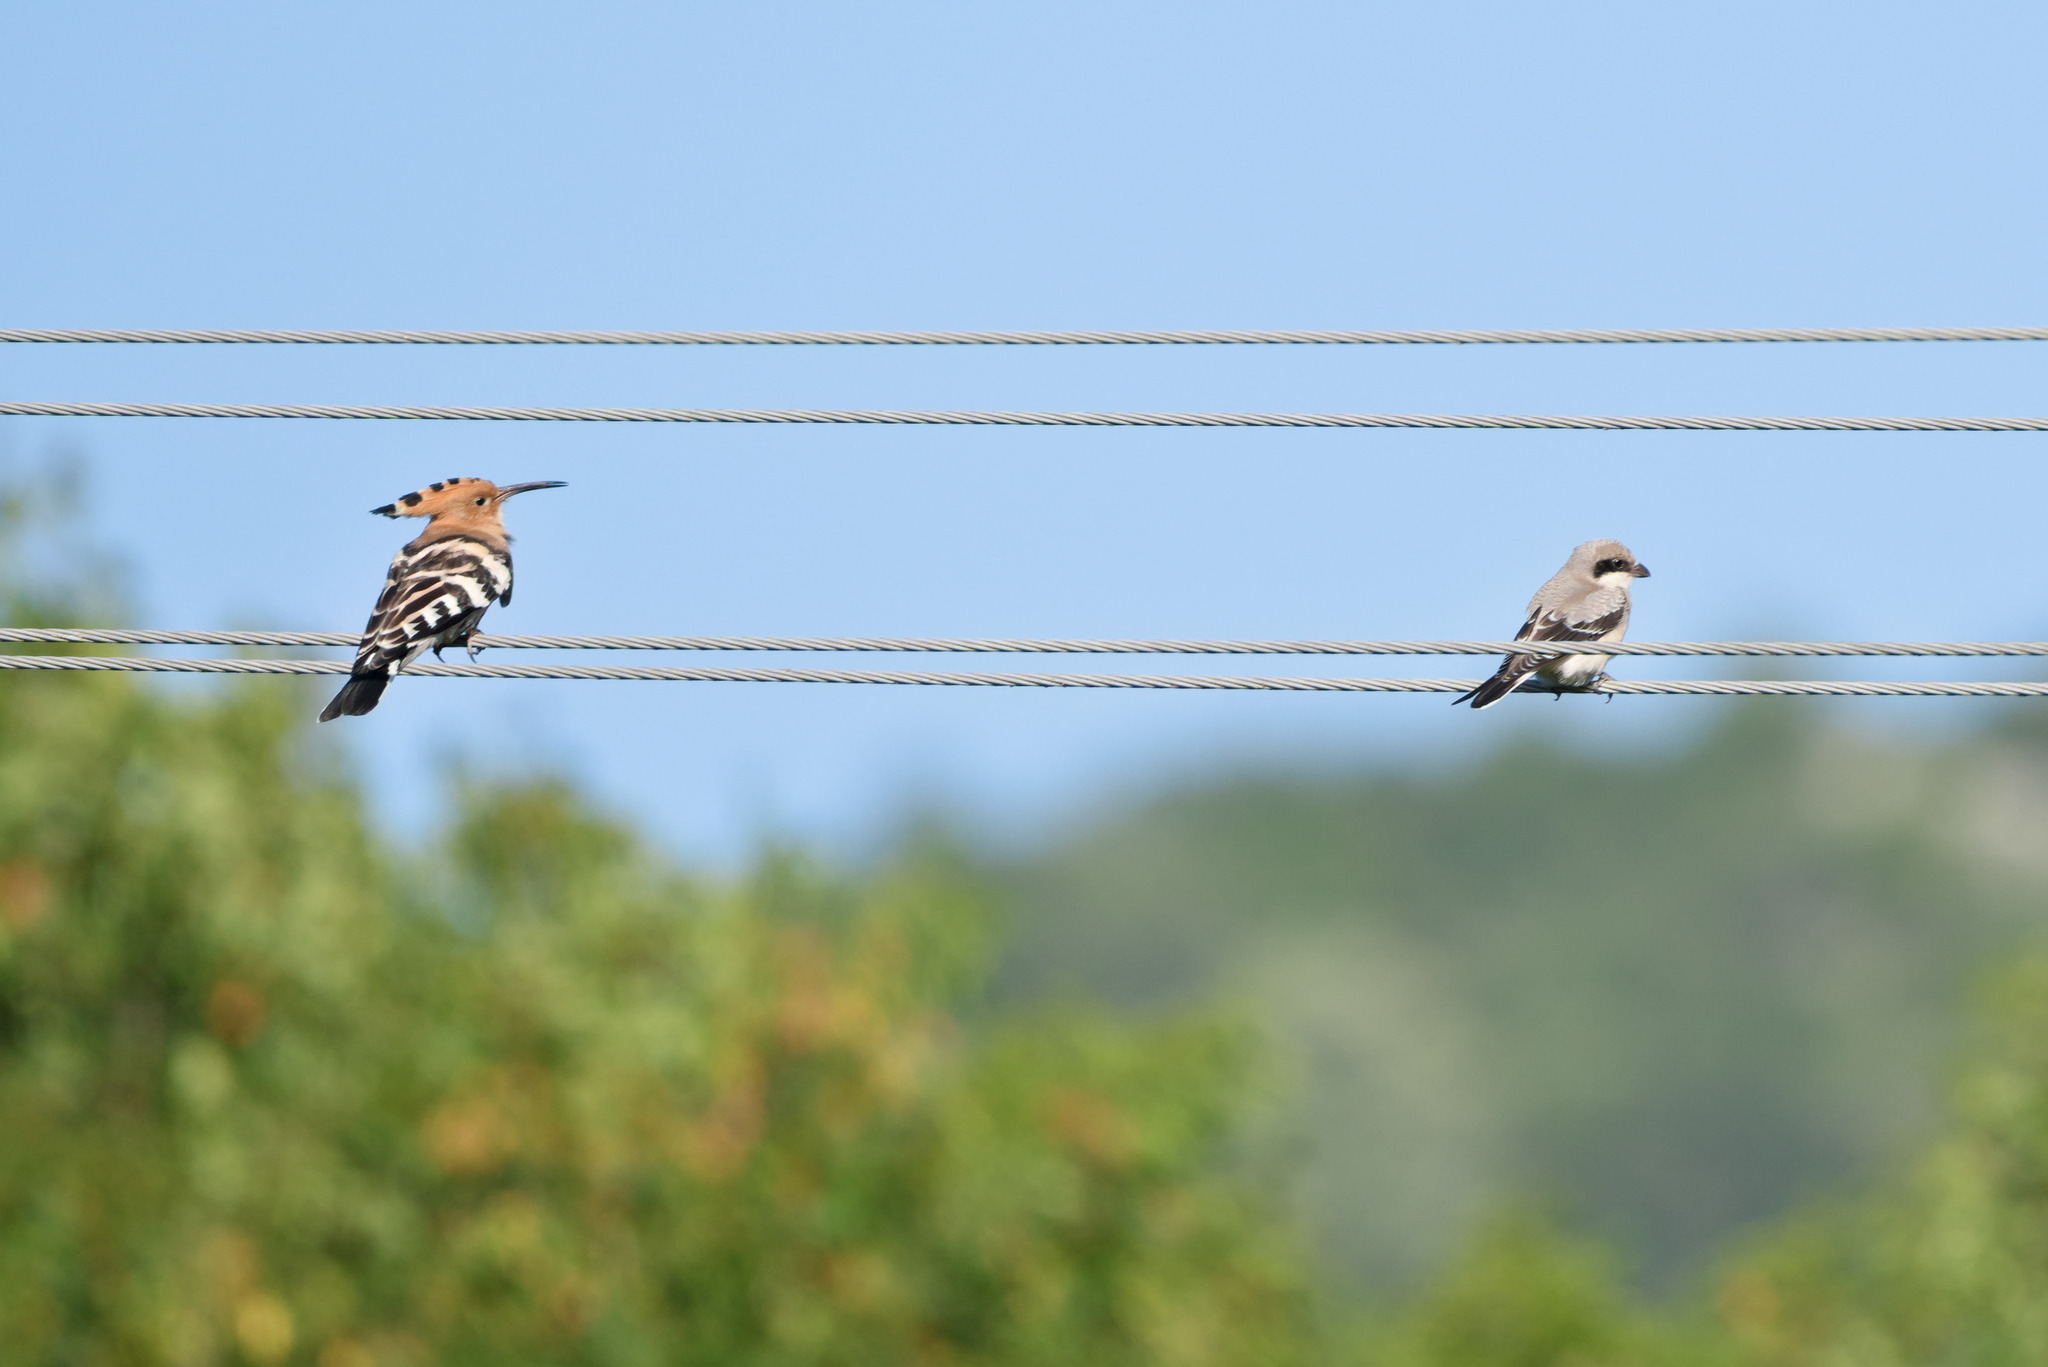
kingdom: Animalia
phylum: Chordata
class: Aves
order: Passeriformes
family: Laniidae
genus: Lanius
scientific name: Lanius minor
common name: Lesser grey shrike
